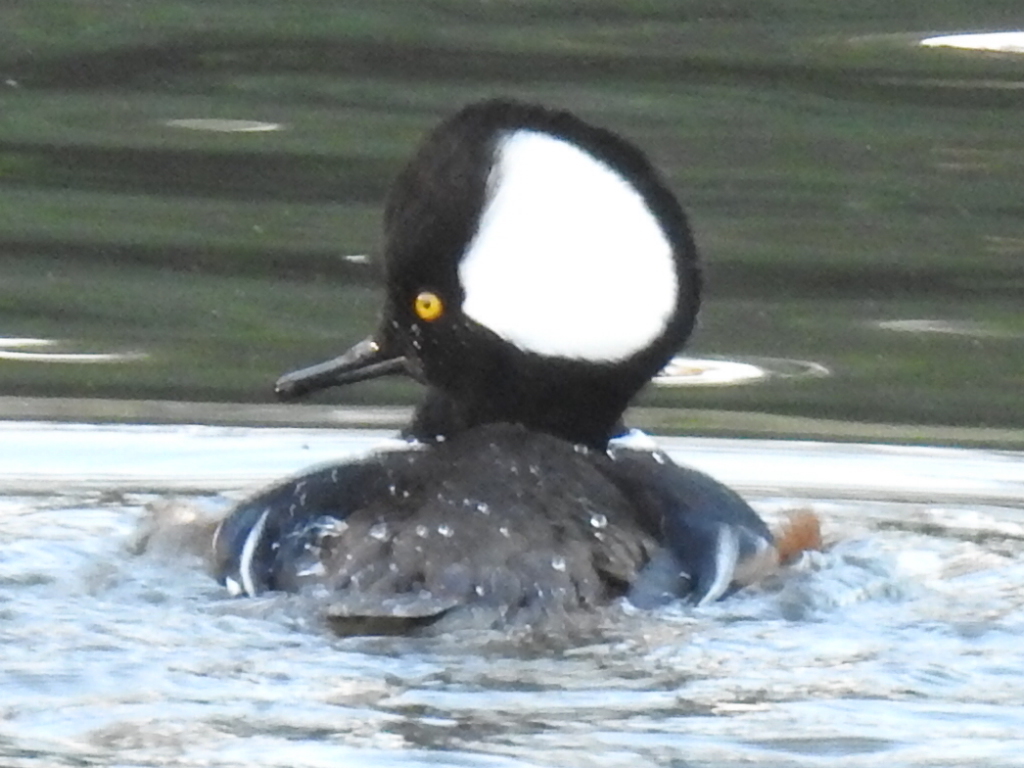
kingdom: Animalia
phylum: Chordata
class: Aves
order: Anseriformes
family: Anatidae
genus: Lophodytes
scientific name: Lophodytes cucullatus
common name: Hooded merganser
